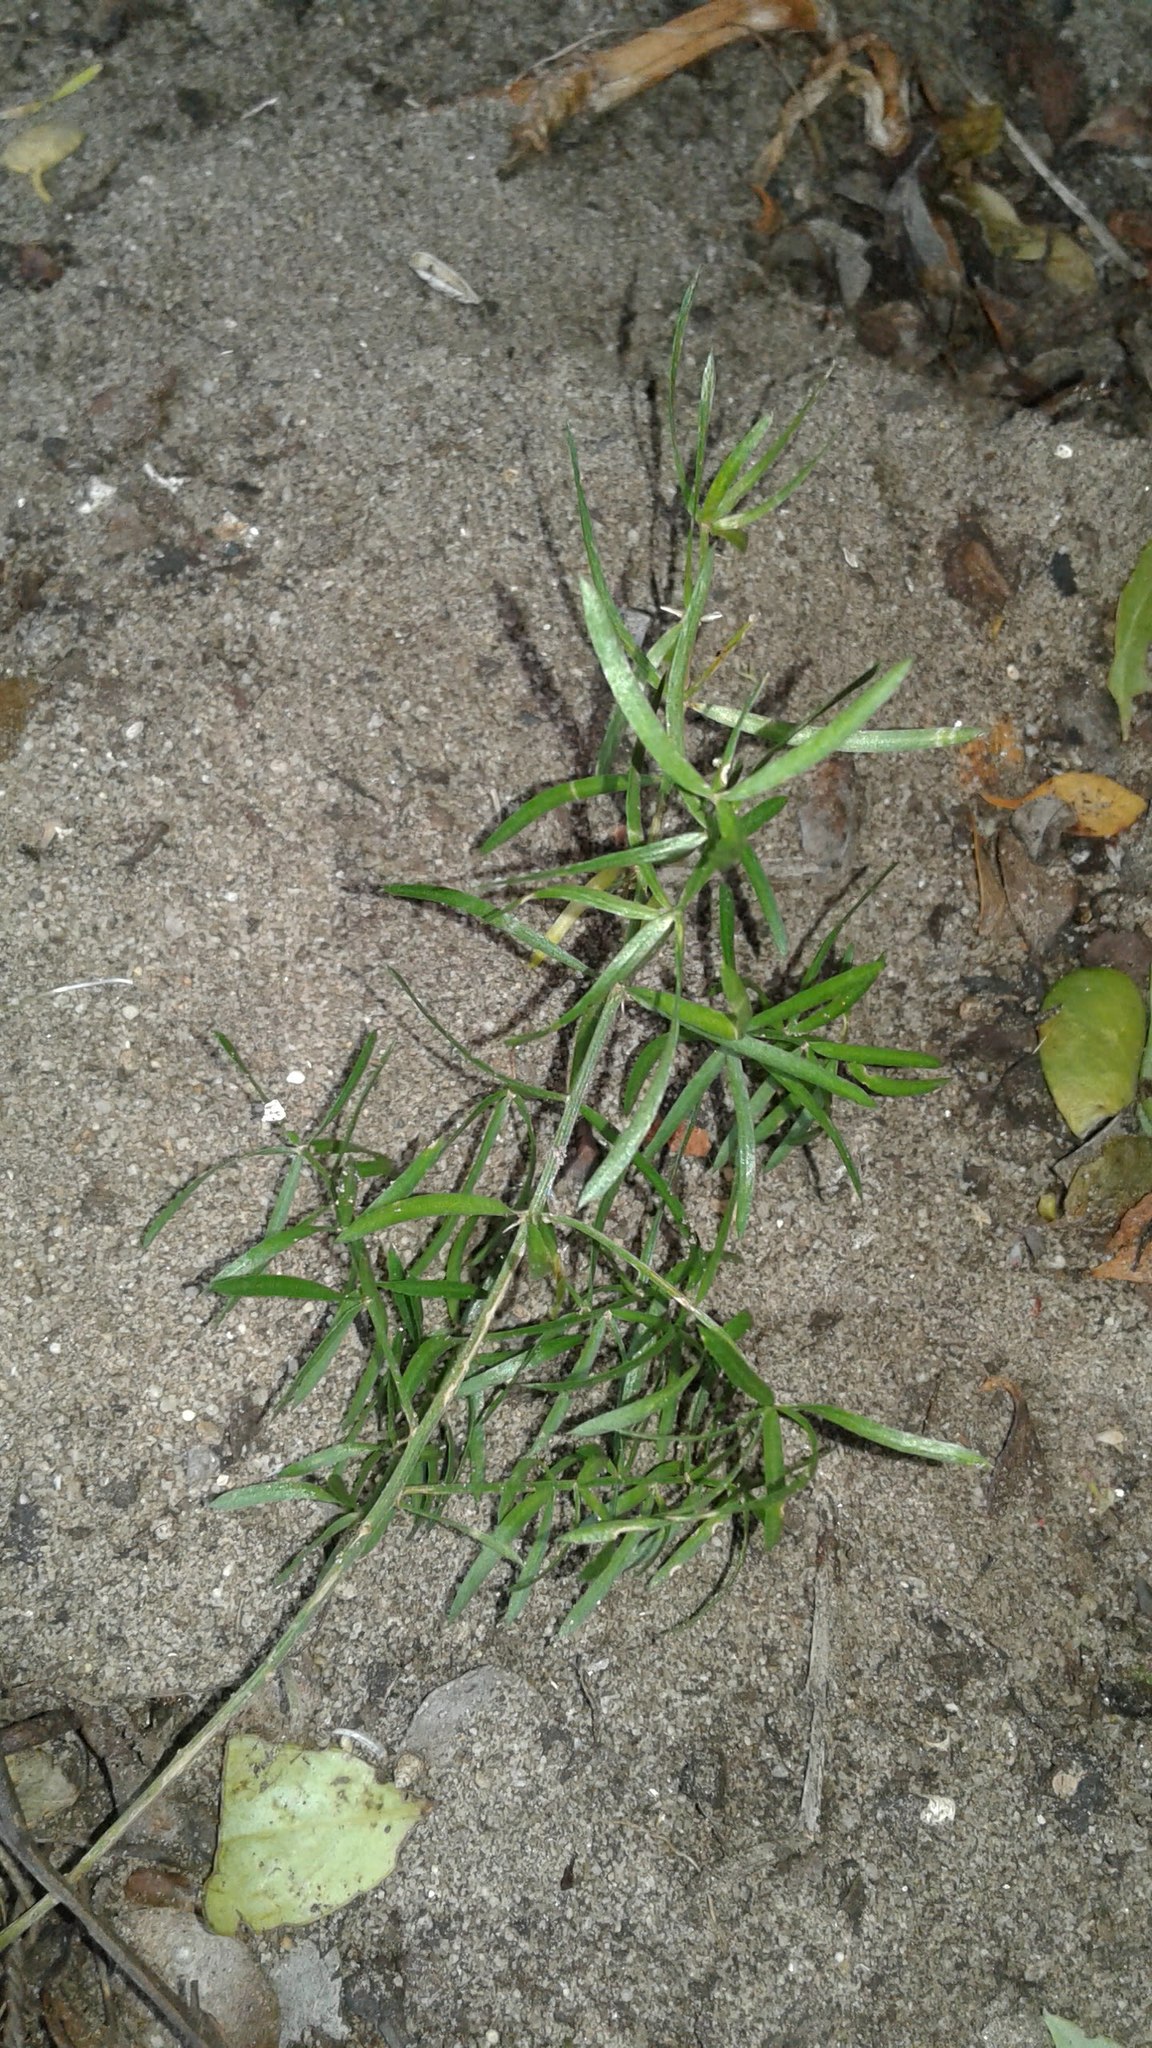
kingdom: Plantae
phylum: Tracheophyta
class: Liliopsida
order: Asparagales
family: Asparagaceae
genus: Asparagus
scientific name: Asparagus aethiopicus
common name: Sprenger's asparagus fern
